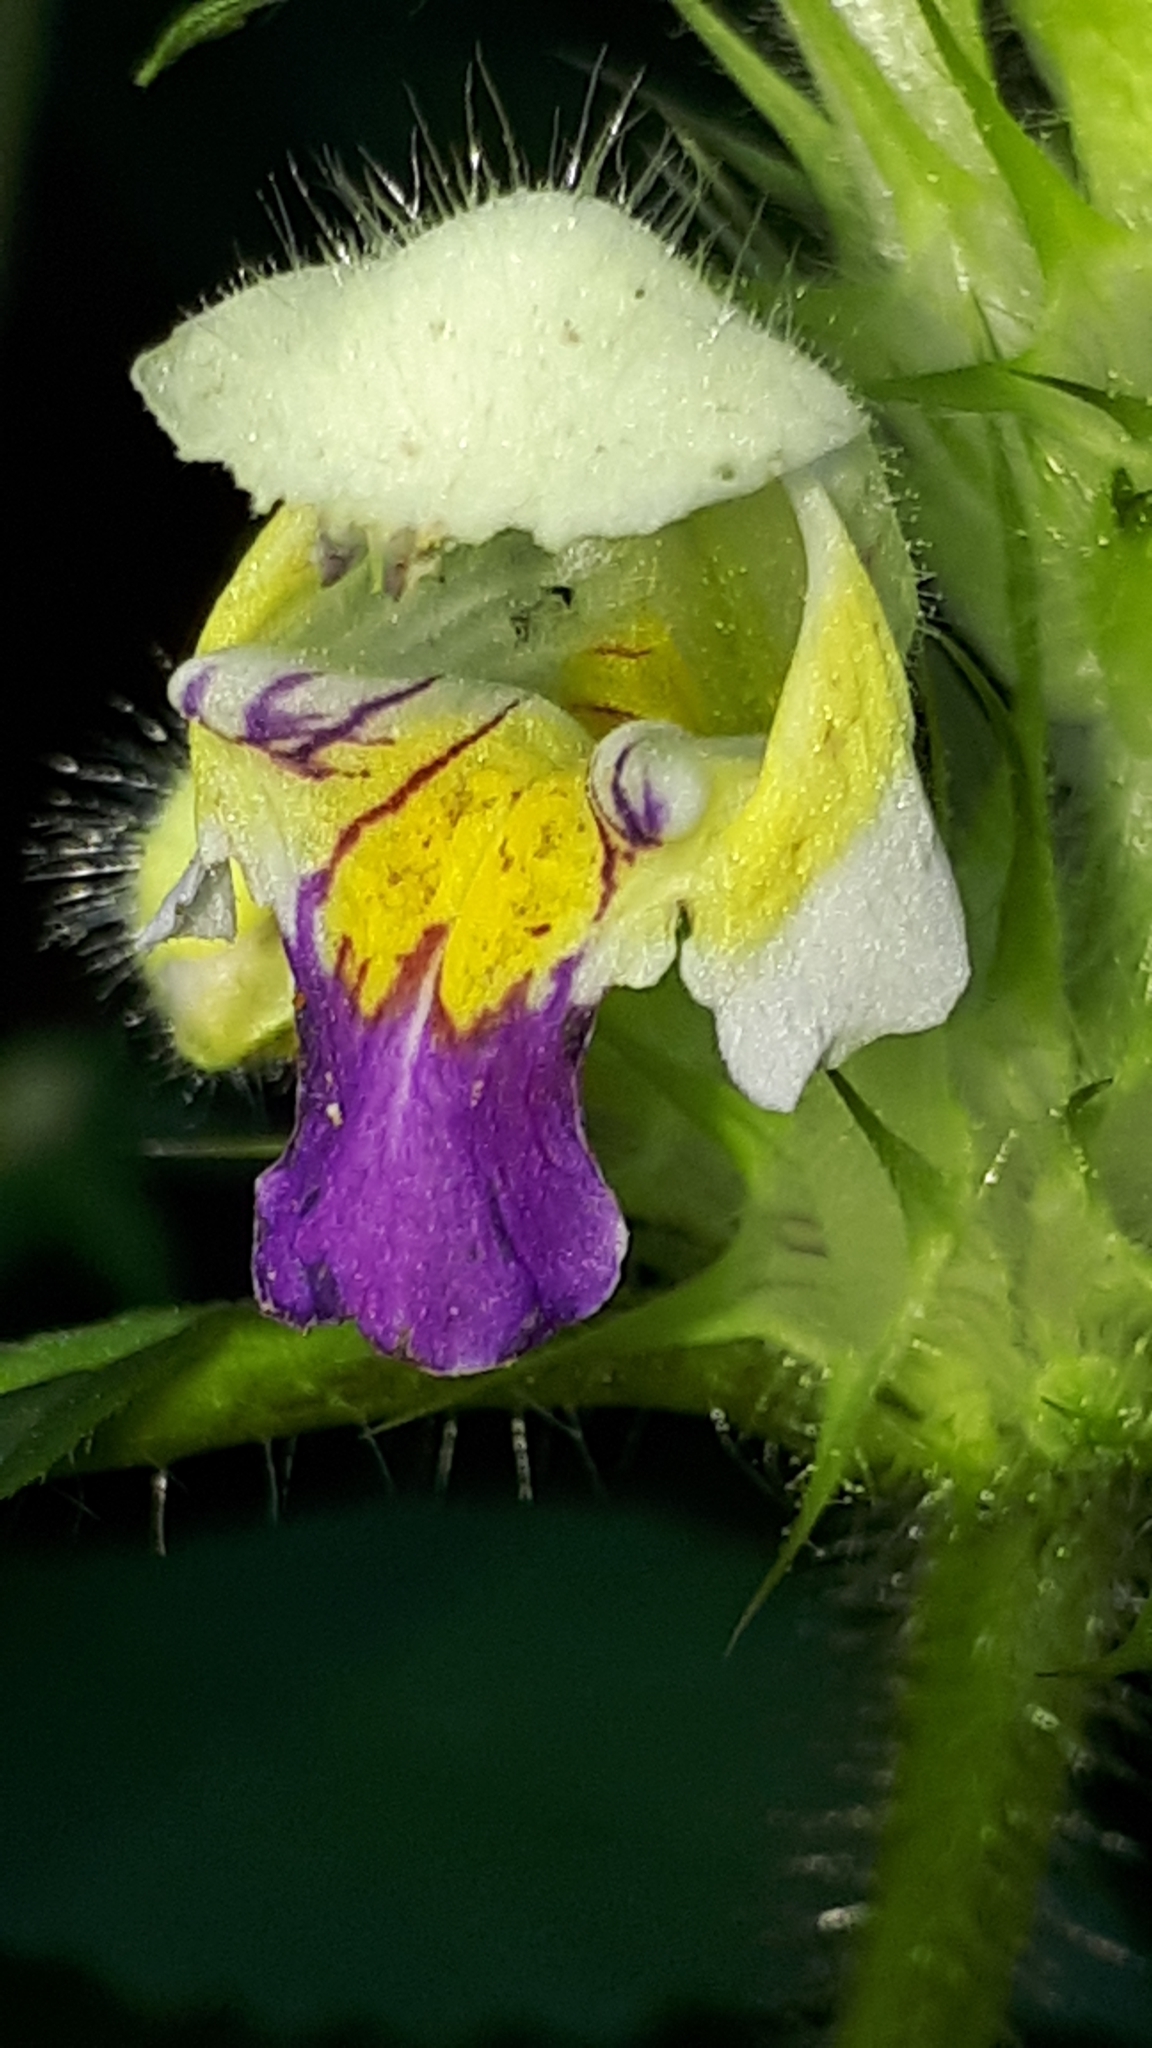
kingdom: Plantae
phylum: Tracheophyta
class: Magnoliopsida
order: Lamiales
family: Lamiaceae
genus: Galeopsis
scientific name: Galeopsis speciosa
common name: Large-flowered hemp-nettle
